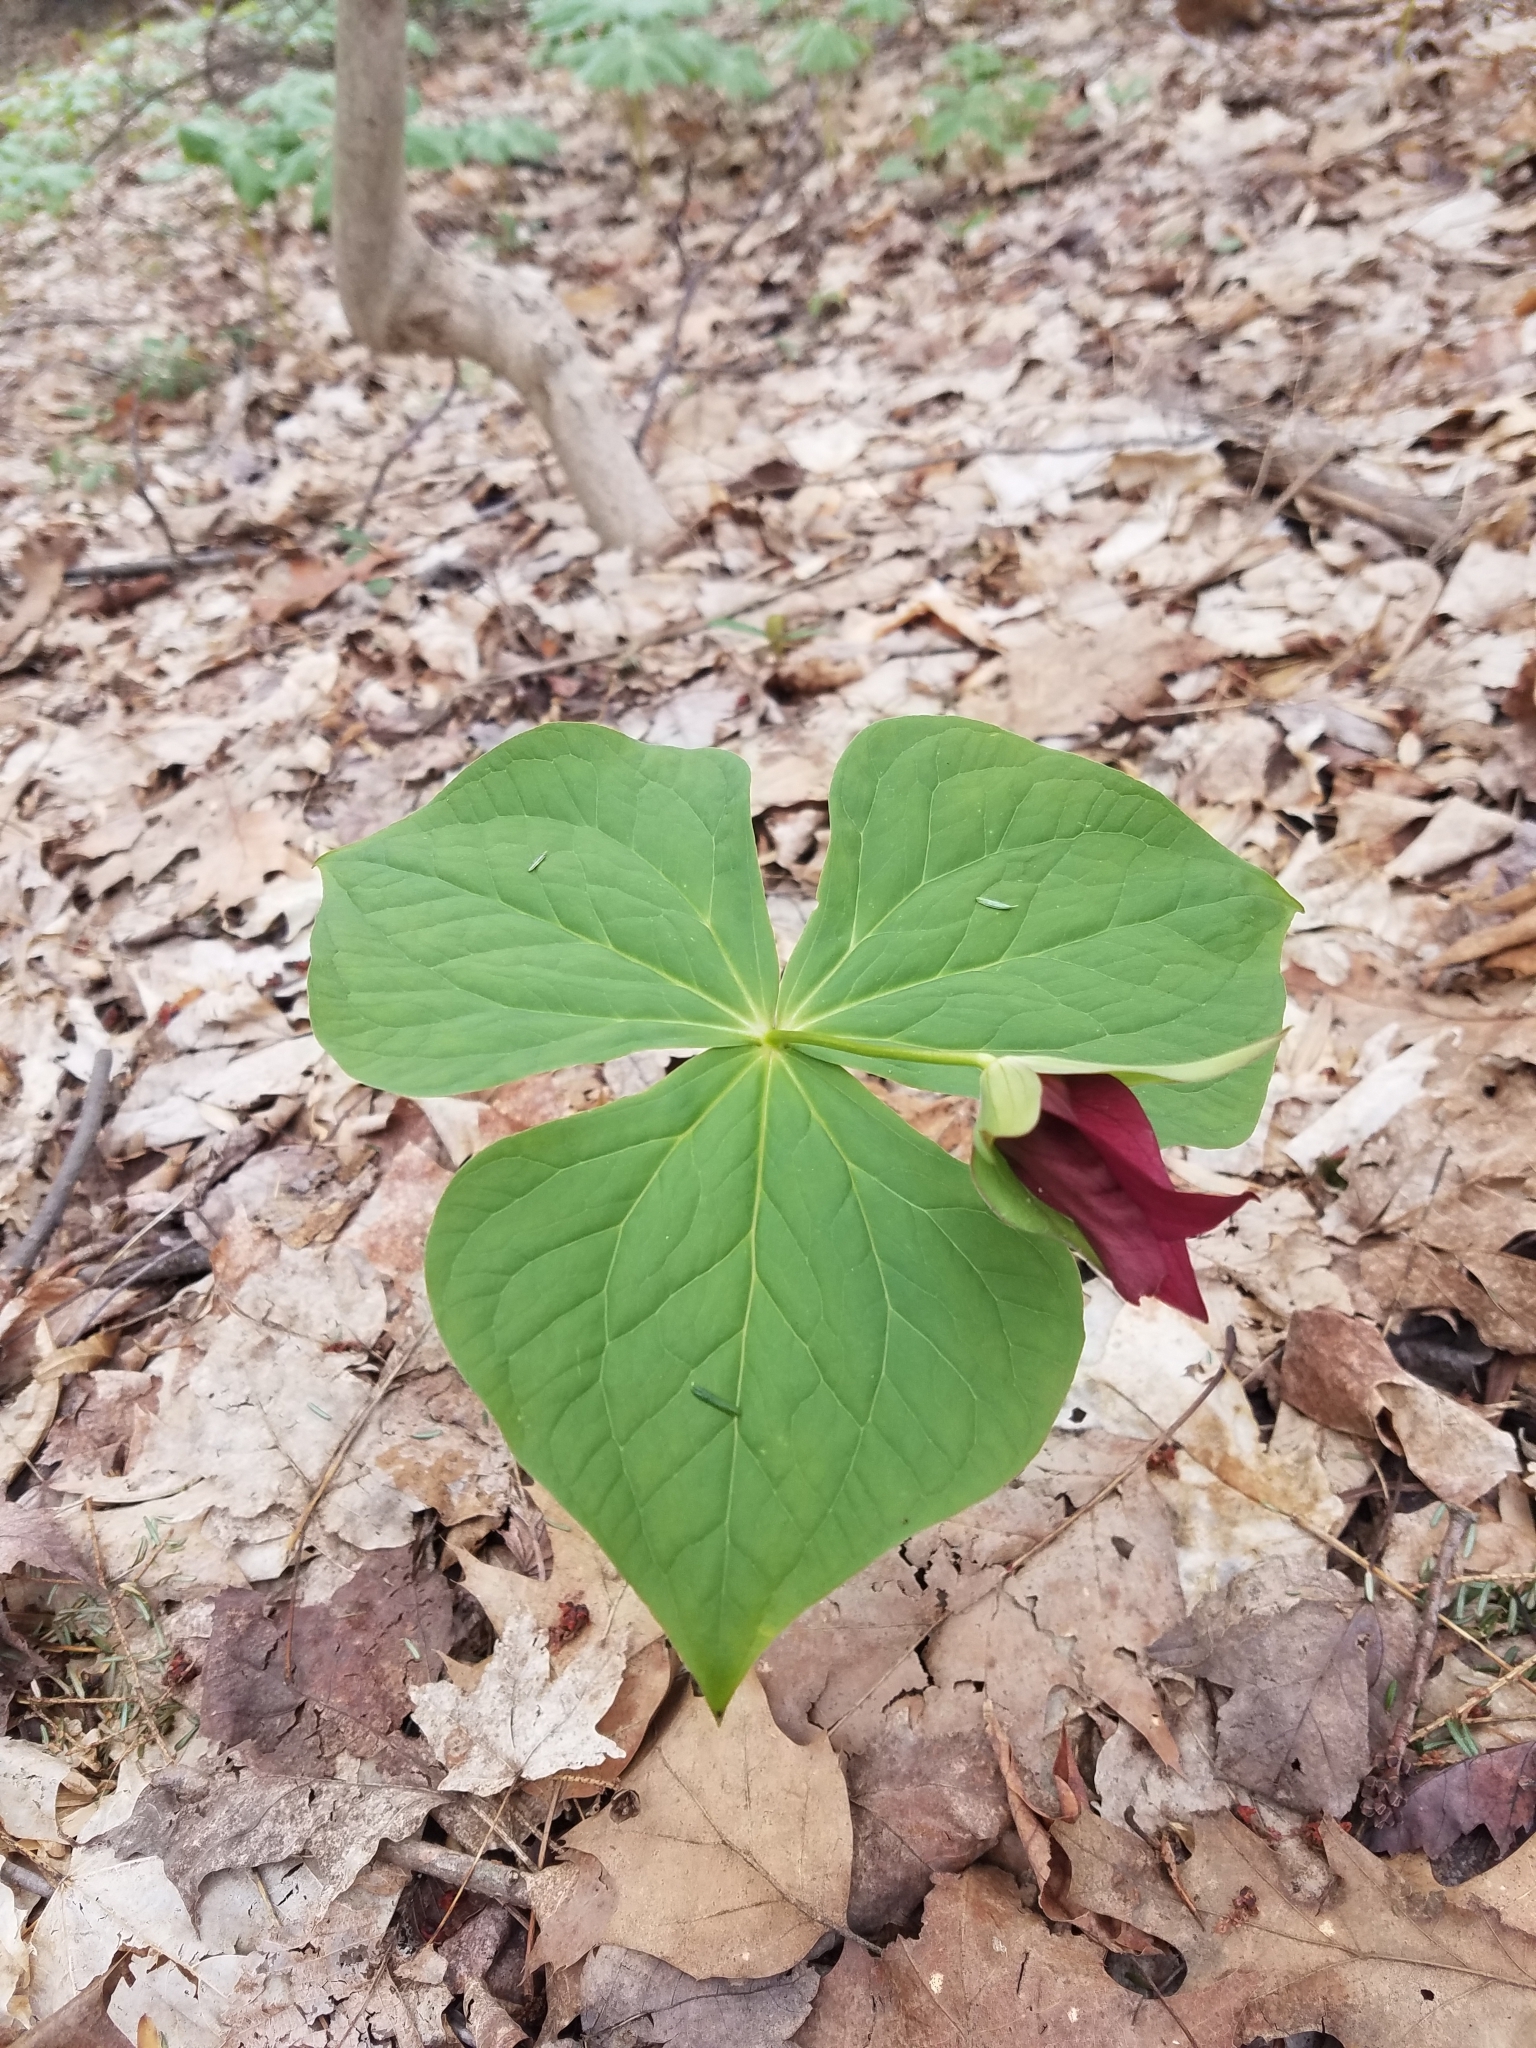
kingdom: Plantae
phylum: Tracheophyta
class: Liliopsida
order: Liliales
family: Melanthiaceae
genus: Trillium
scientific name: Trillium erectum
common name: Purple trillium
